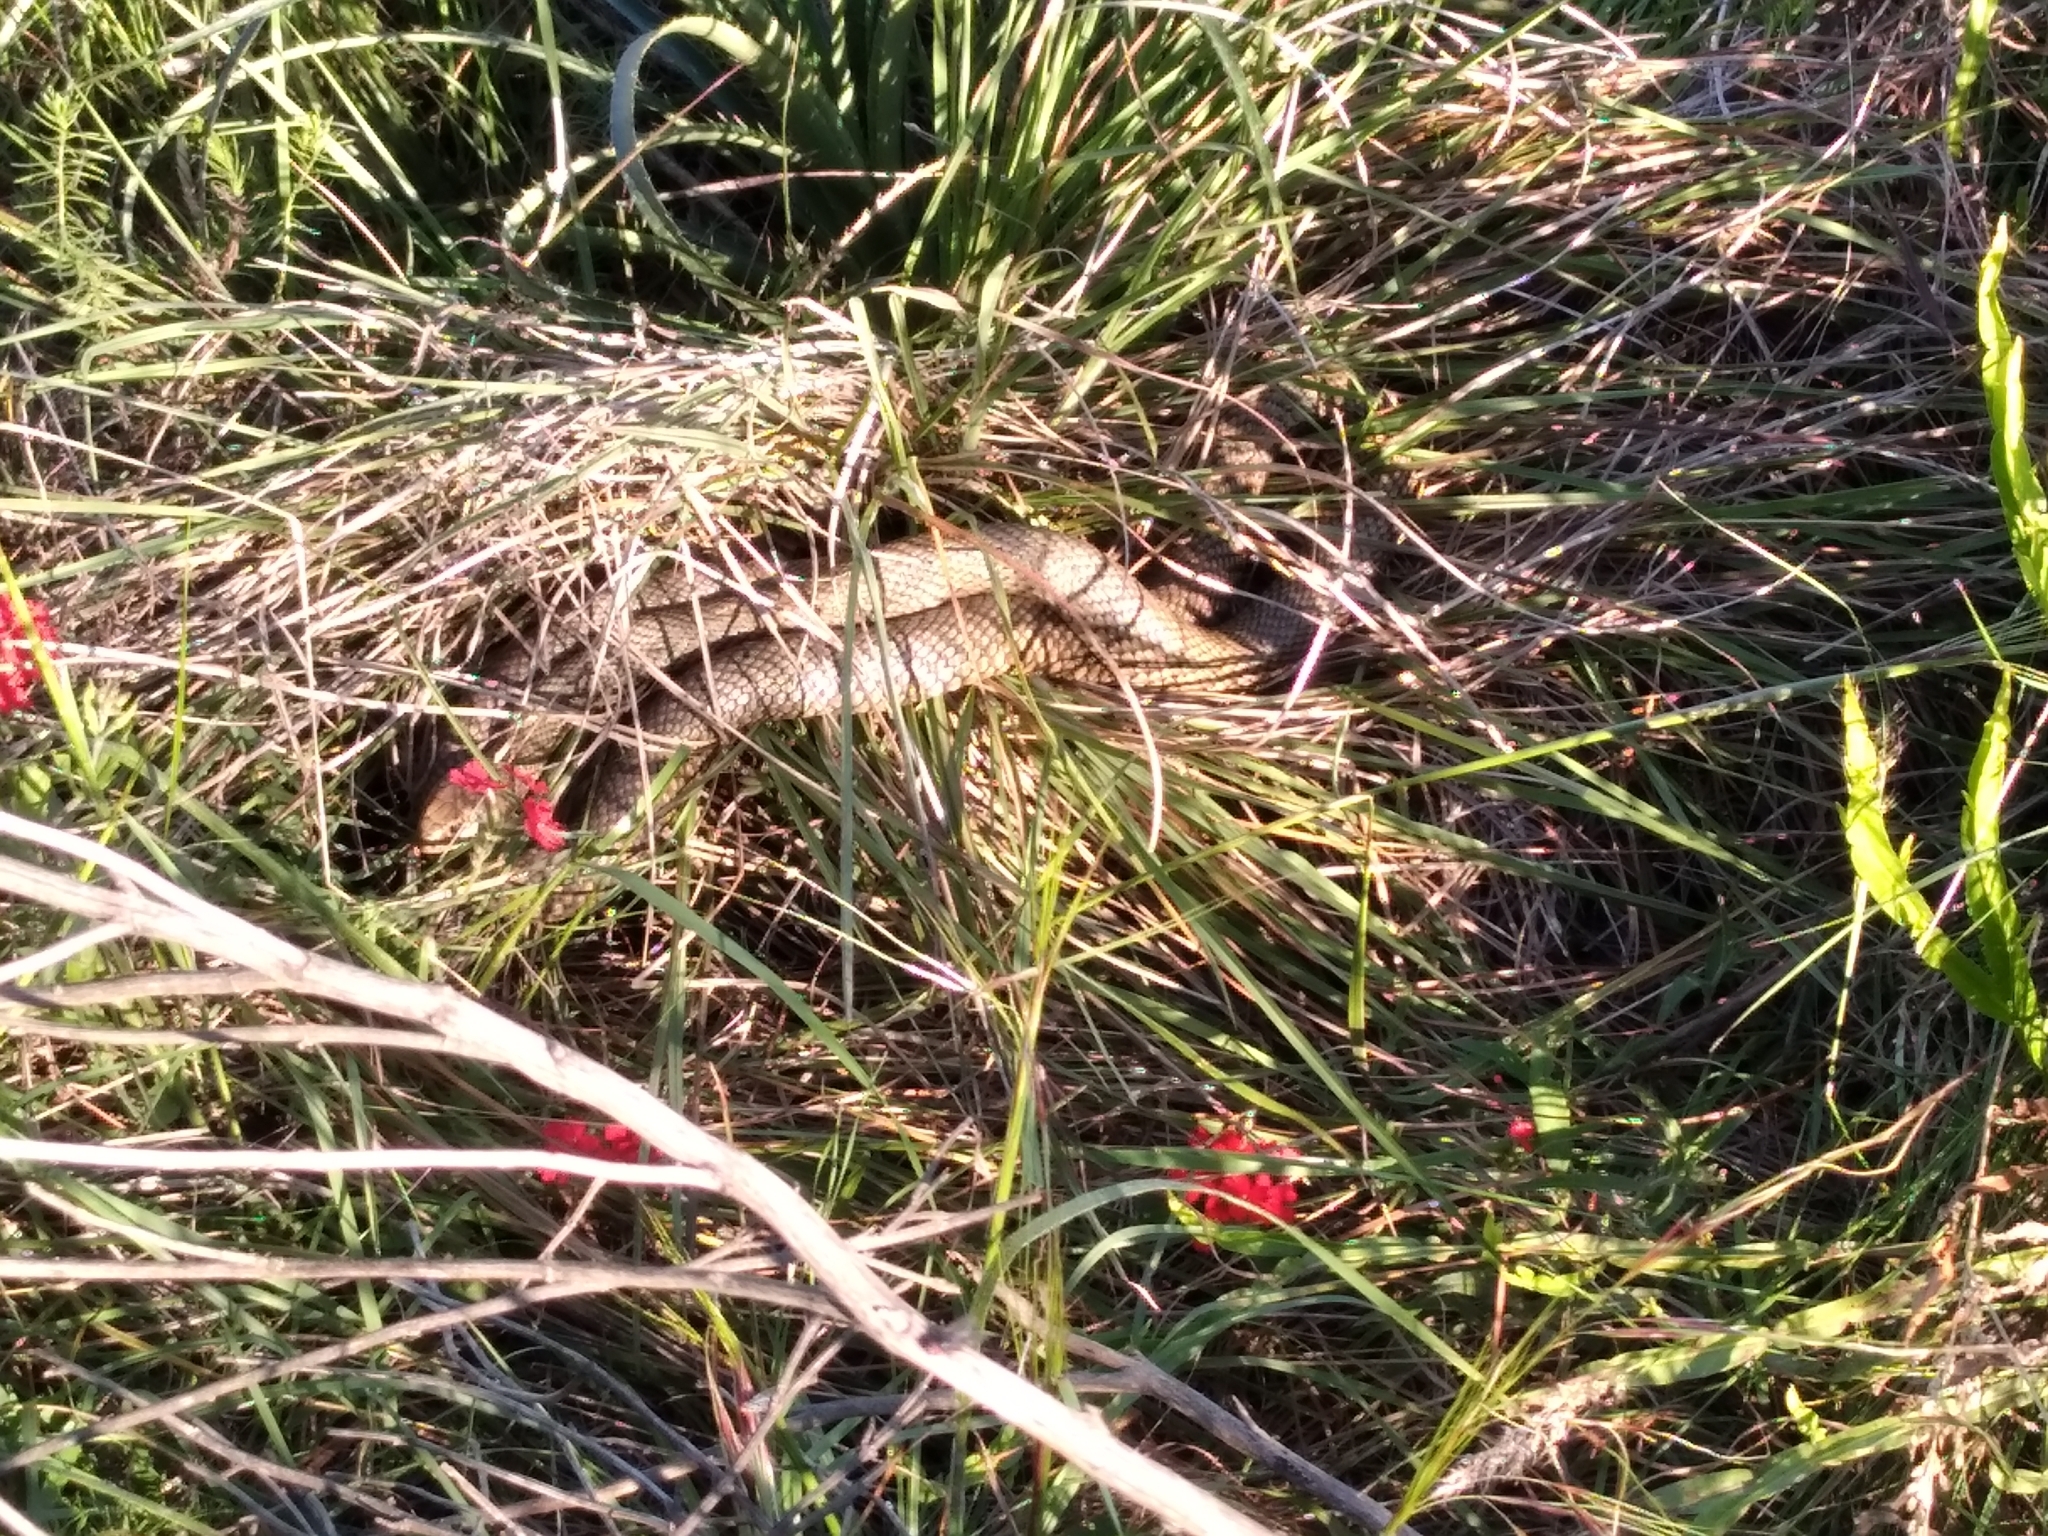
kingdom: Animalia
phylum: Chordata
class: Squamata
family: Colubridae
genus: Philodryas
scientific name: Philodryas patagoniensis
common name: Patagonia green racer
